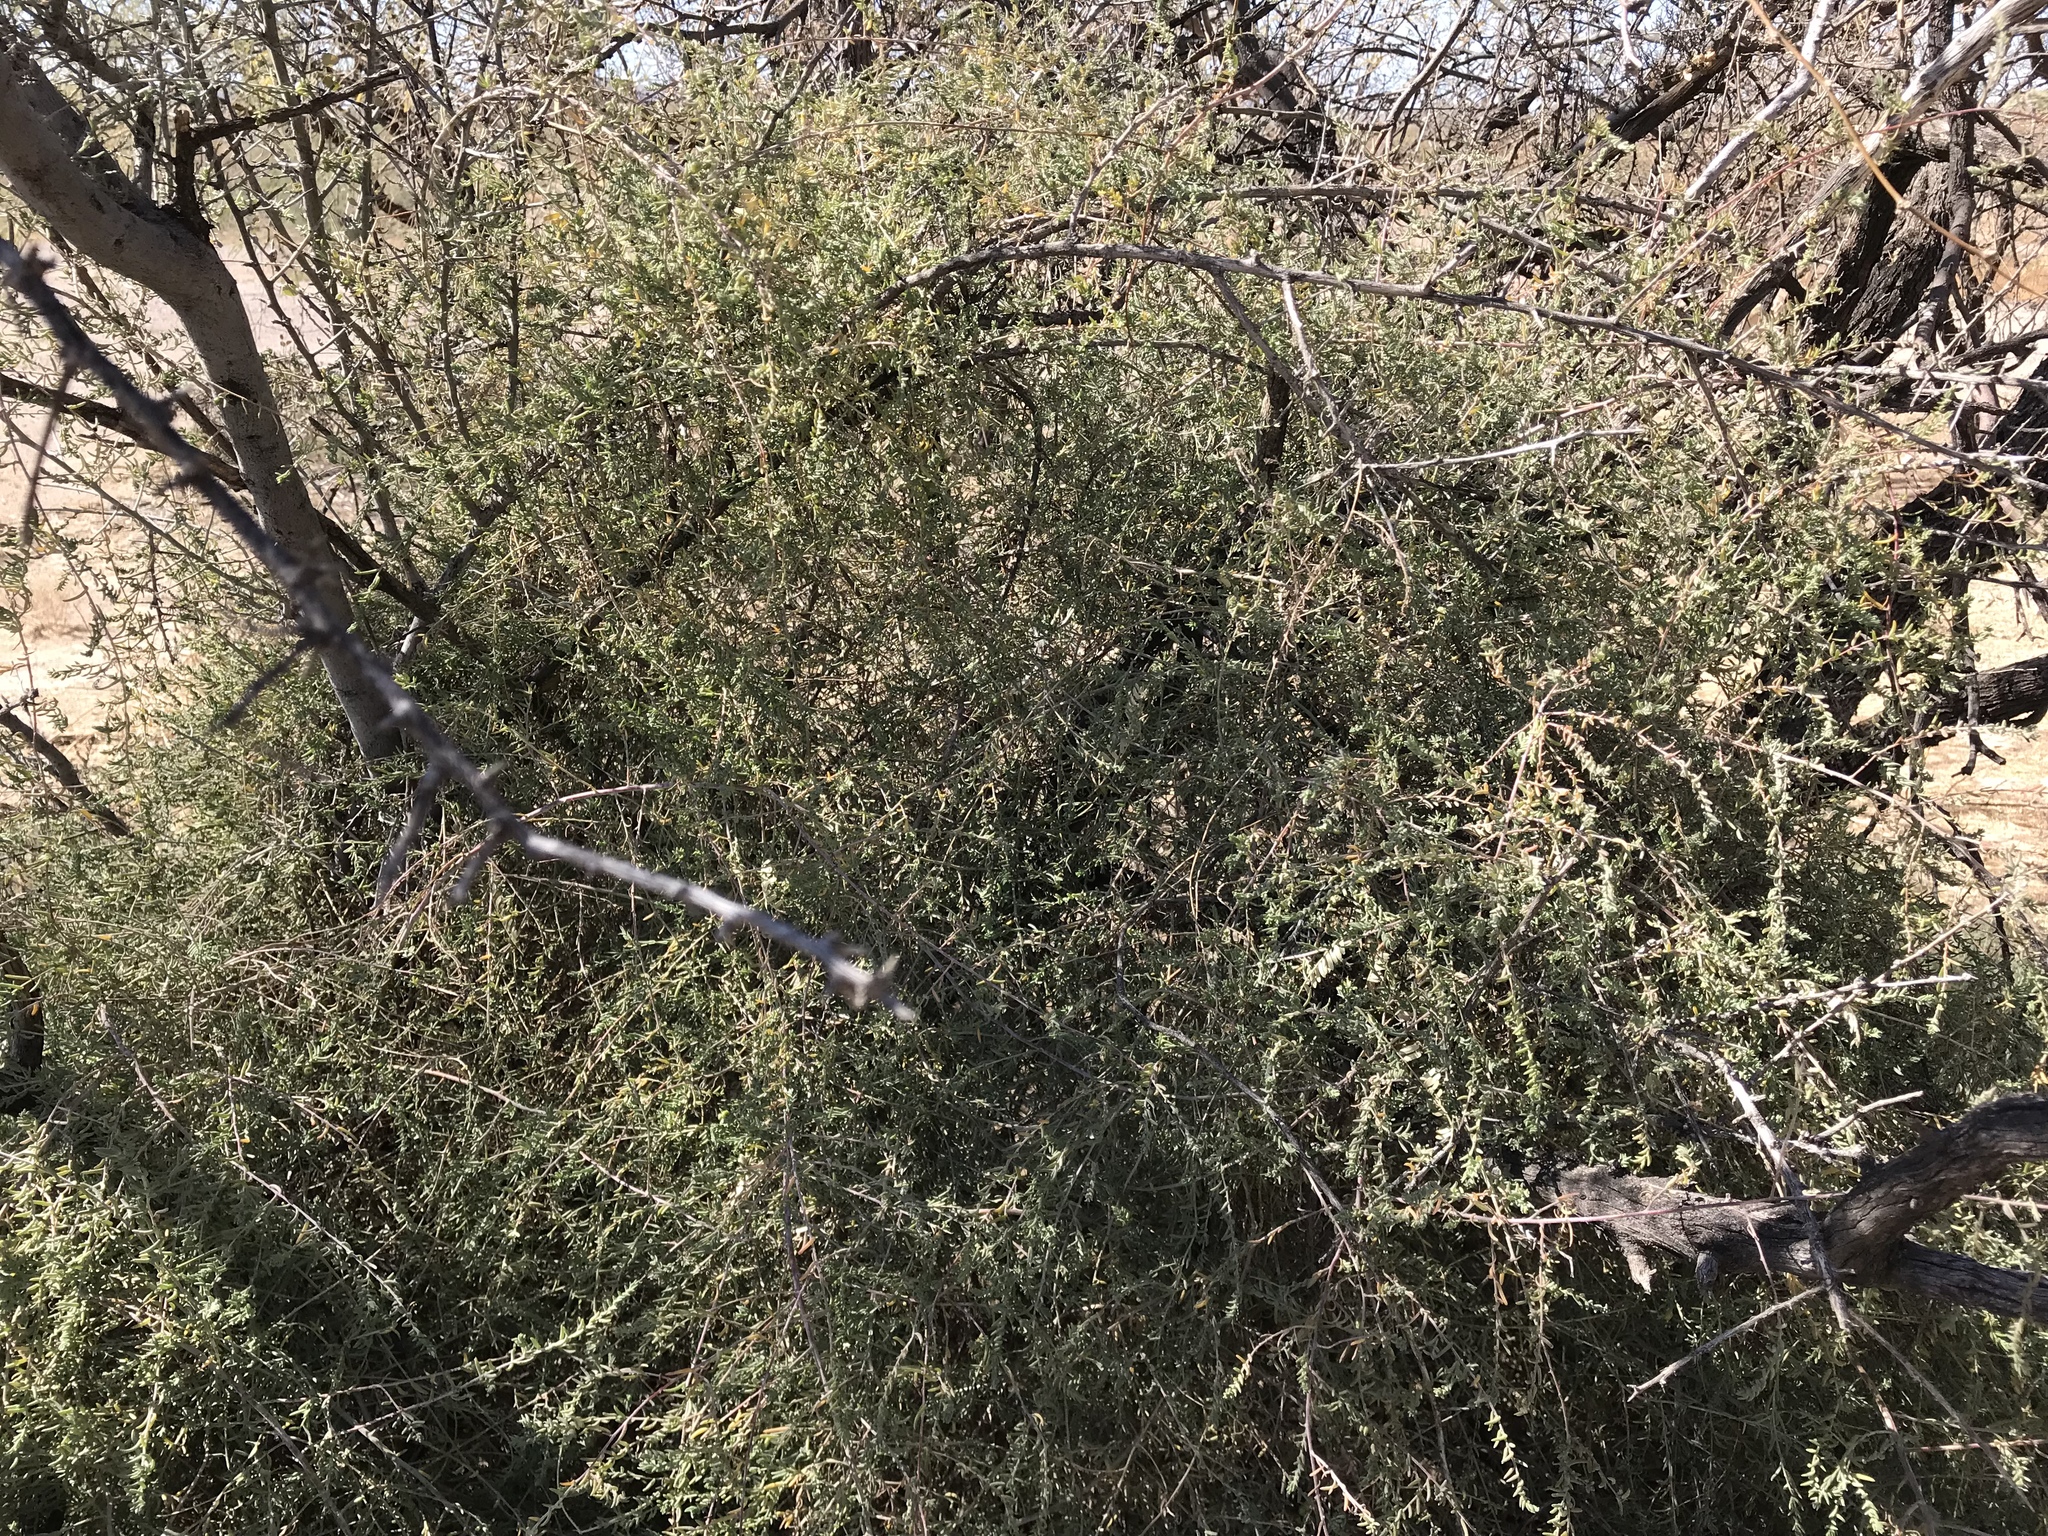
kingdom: Plantae
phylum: Tracheophyta
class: Magnoliopsida
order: Caryophyllales
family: Amaranthaceae
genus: Suaeda
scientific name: Suaeda nigra
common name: Bush seepweed
